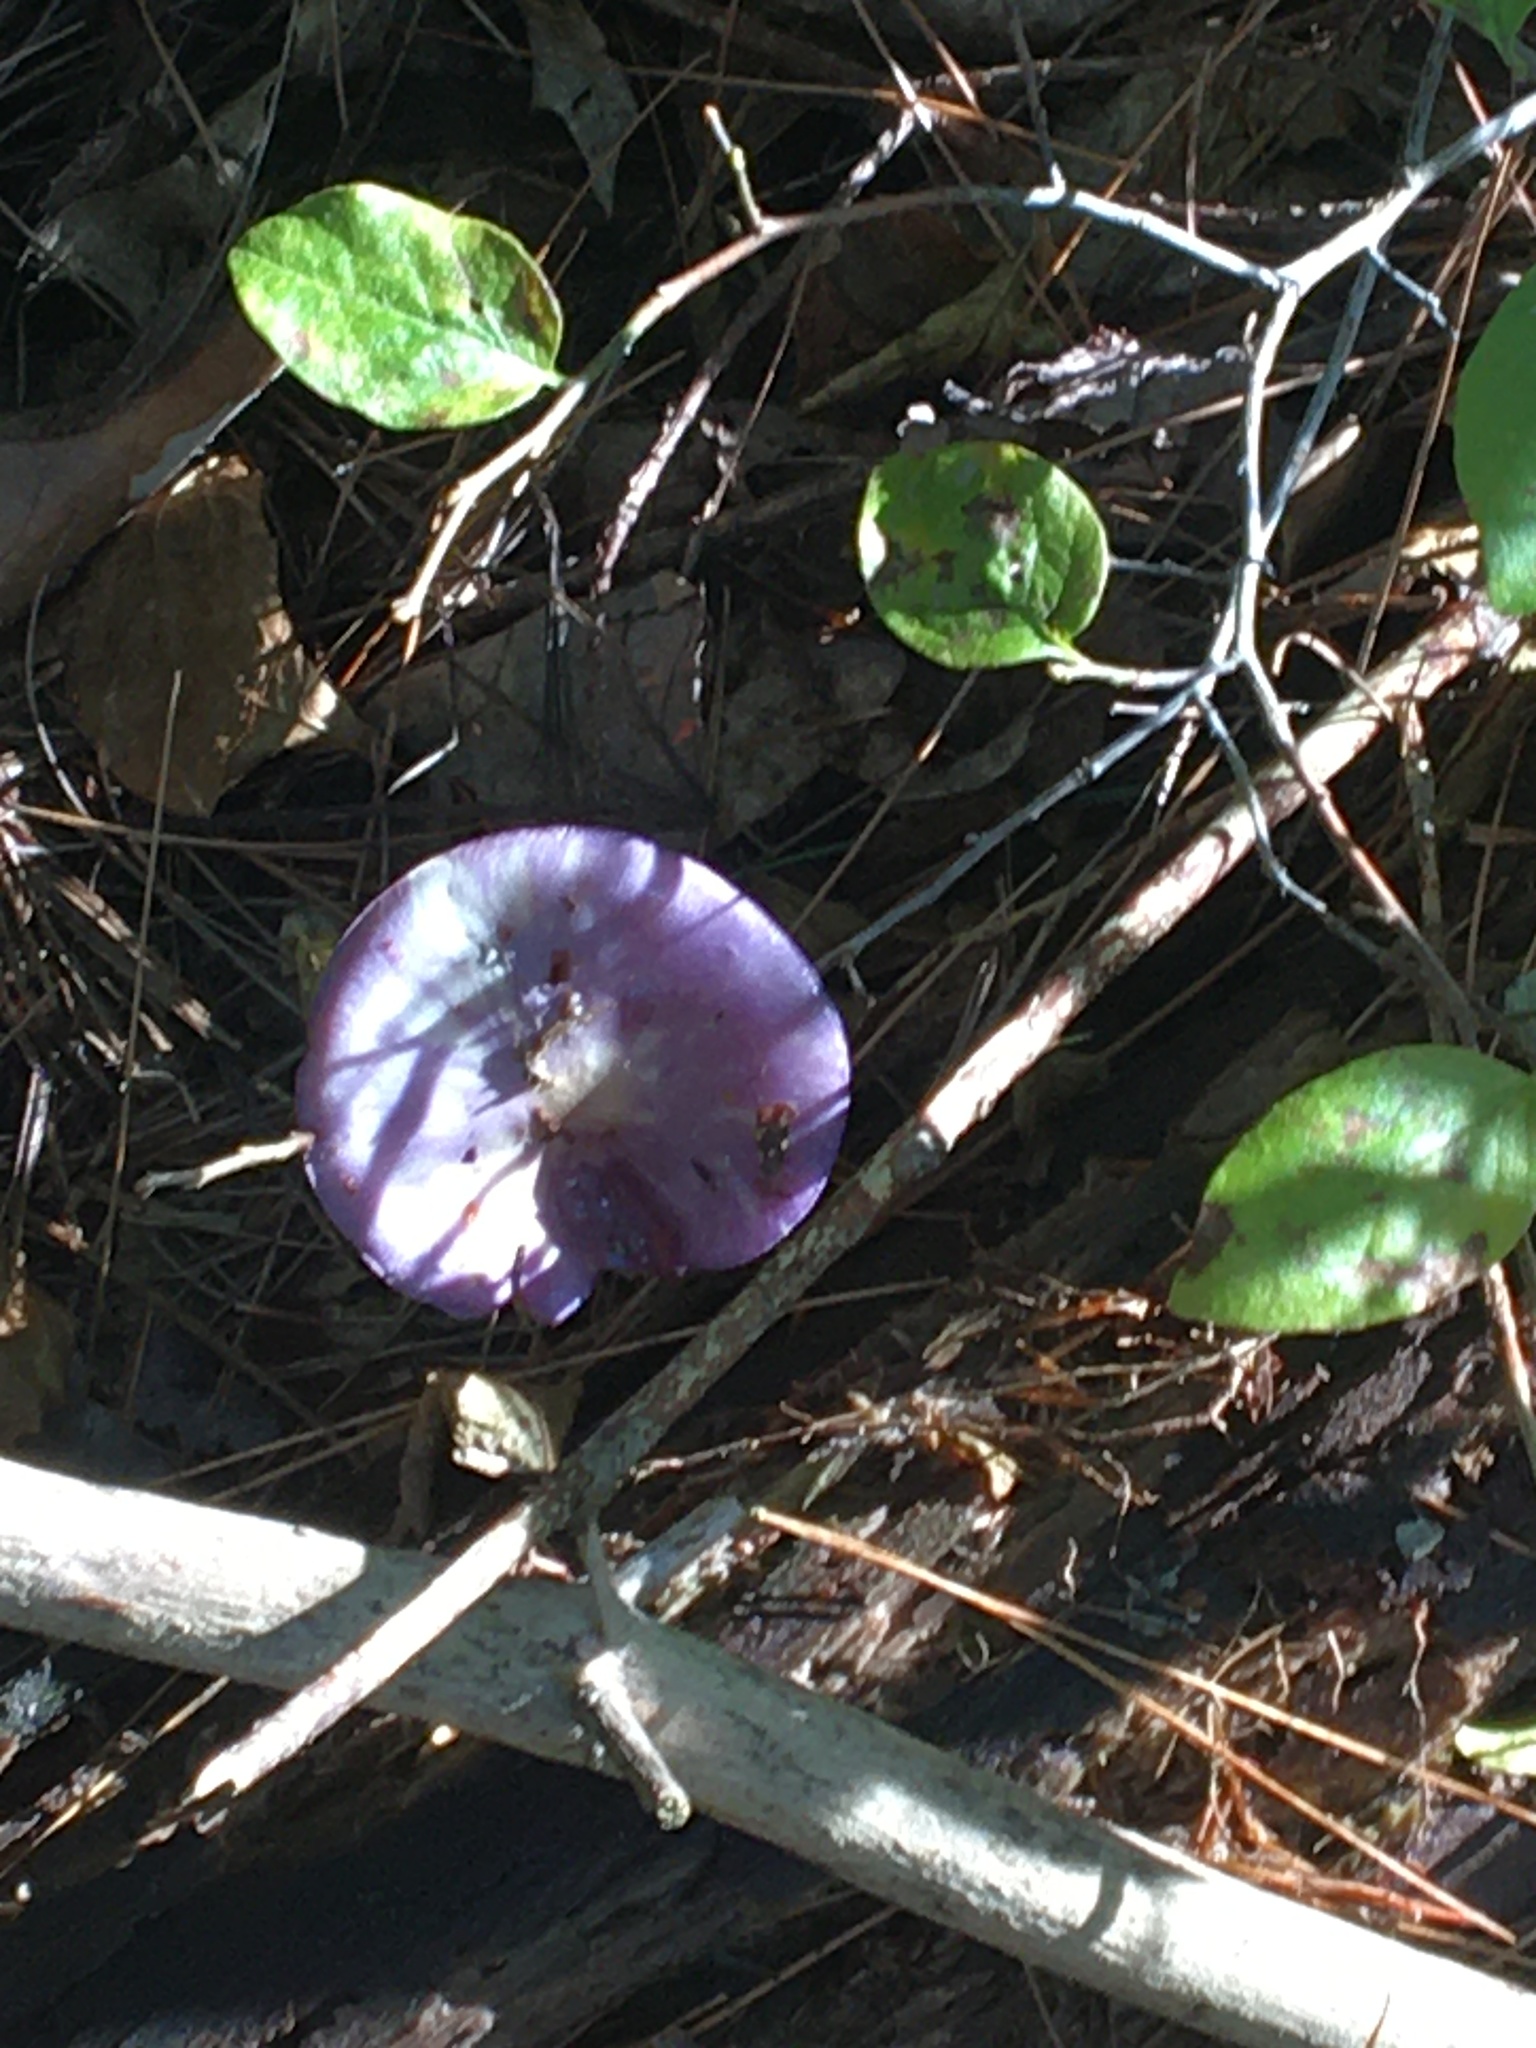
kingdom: Fungi
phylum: Basidiomycota
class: Agaricomycetes
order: Agaricales
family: Cortinariaceae
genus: Cortinarius
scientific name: Cortinarius
